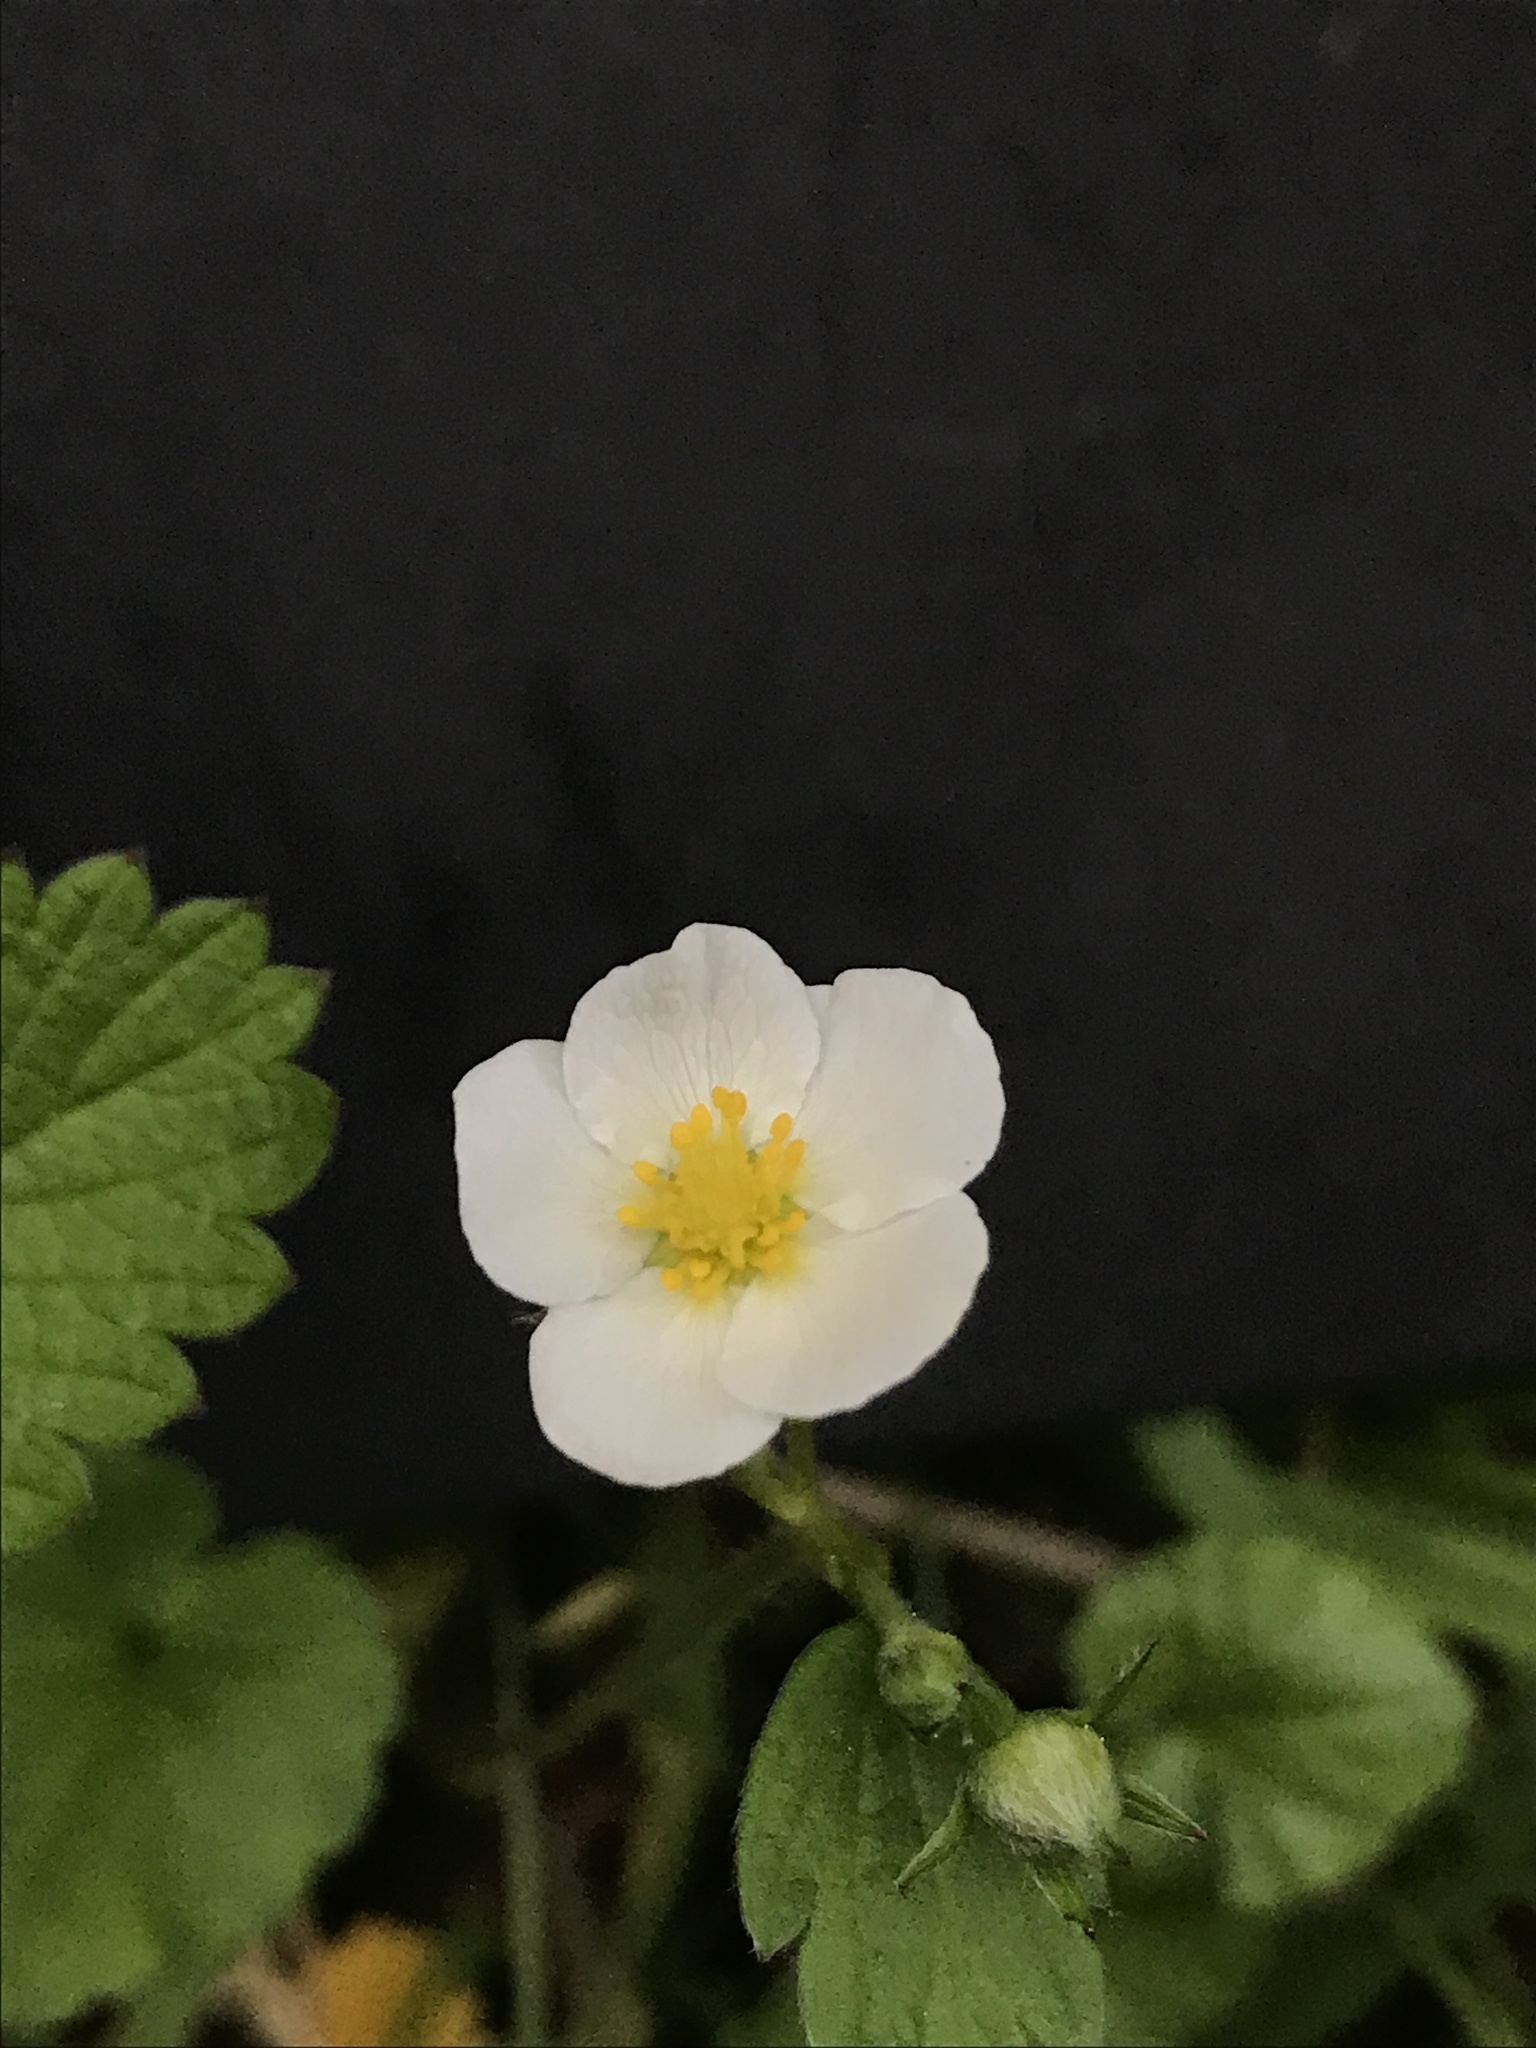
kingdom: Plantae
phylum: Tracheophyta
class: Magnoliopsida
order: Rosales
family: Rosaceae
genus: Fragaria
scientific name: Fragaria vesca
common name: Wild strawberry
